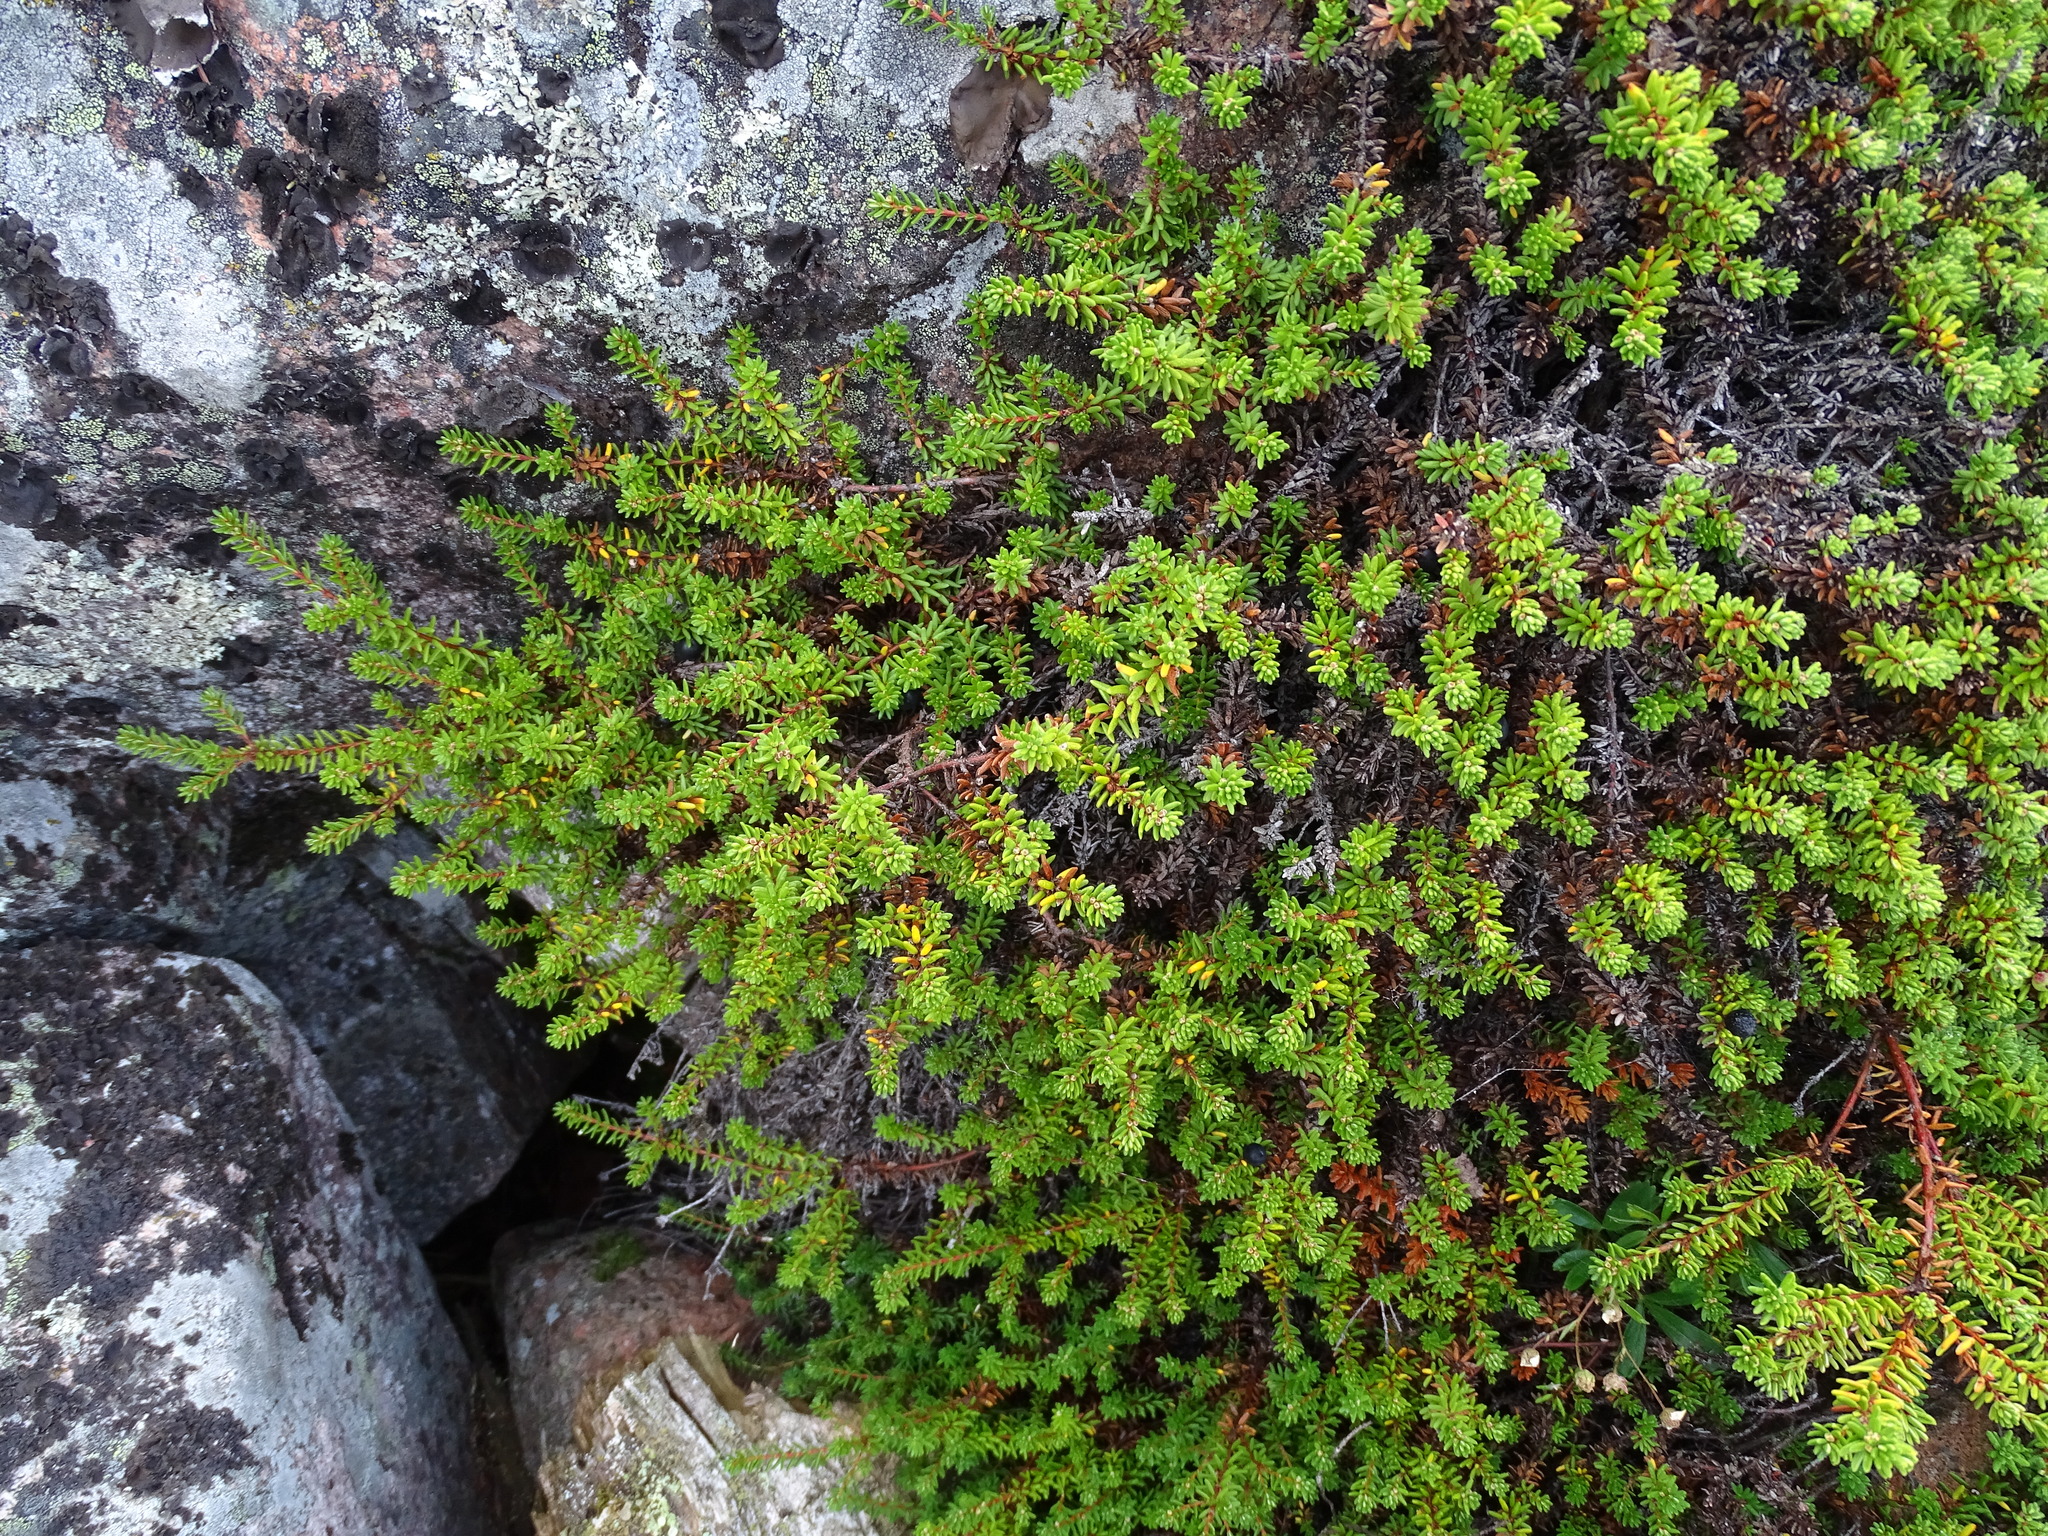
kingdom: Plantae
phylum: Tracheophyta
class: Magnoliopsida
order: Ericales
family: Ericaceae
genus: Empetrum
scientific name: Empetrum nigrum
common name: Black crowberry
